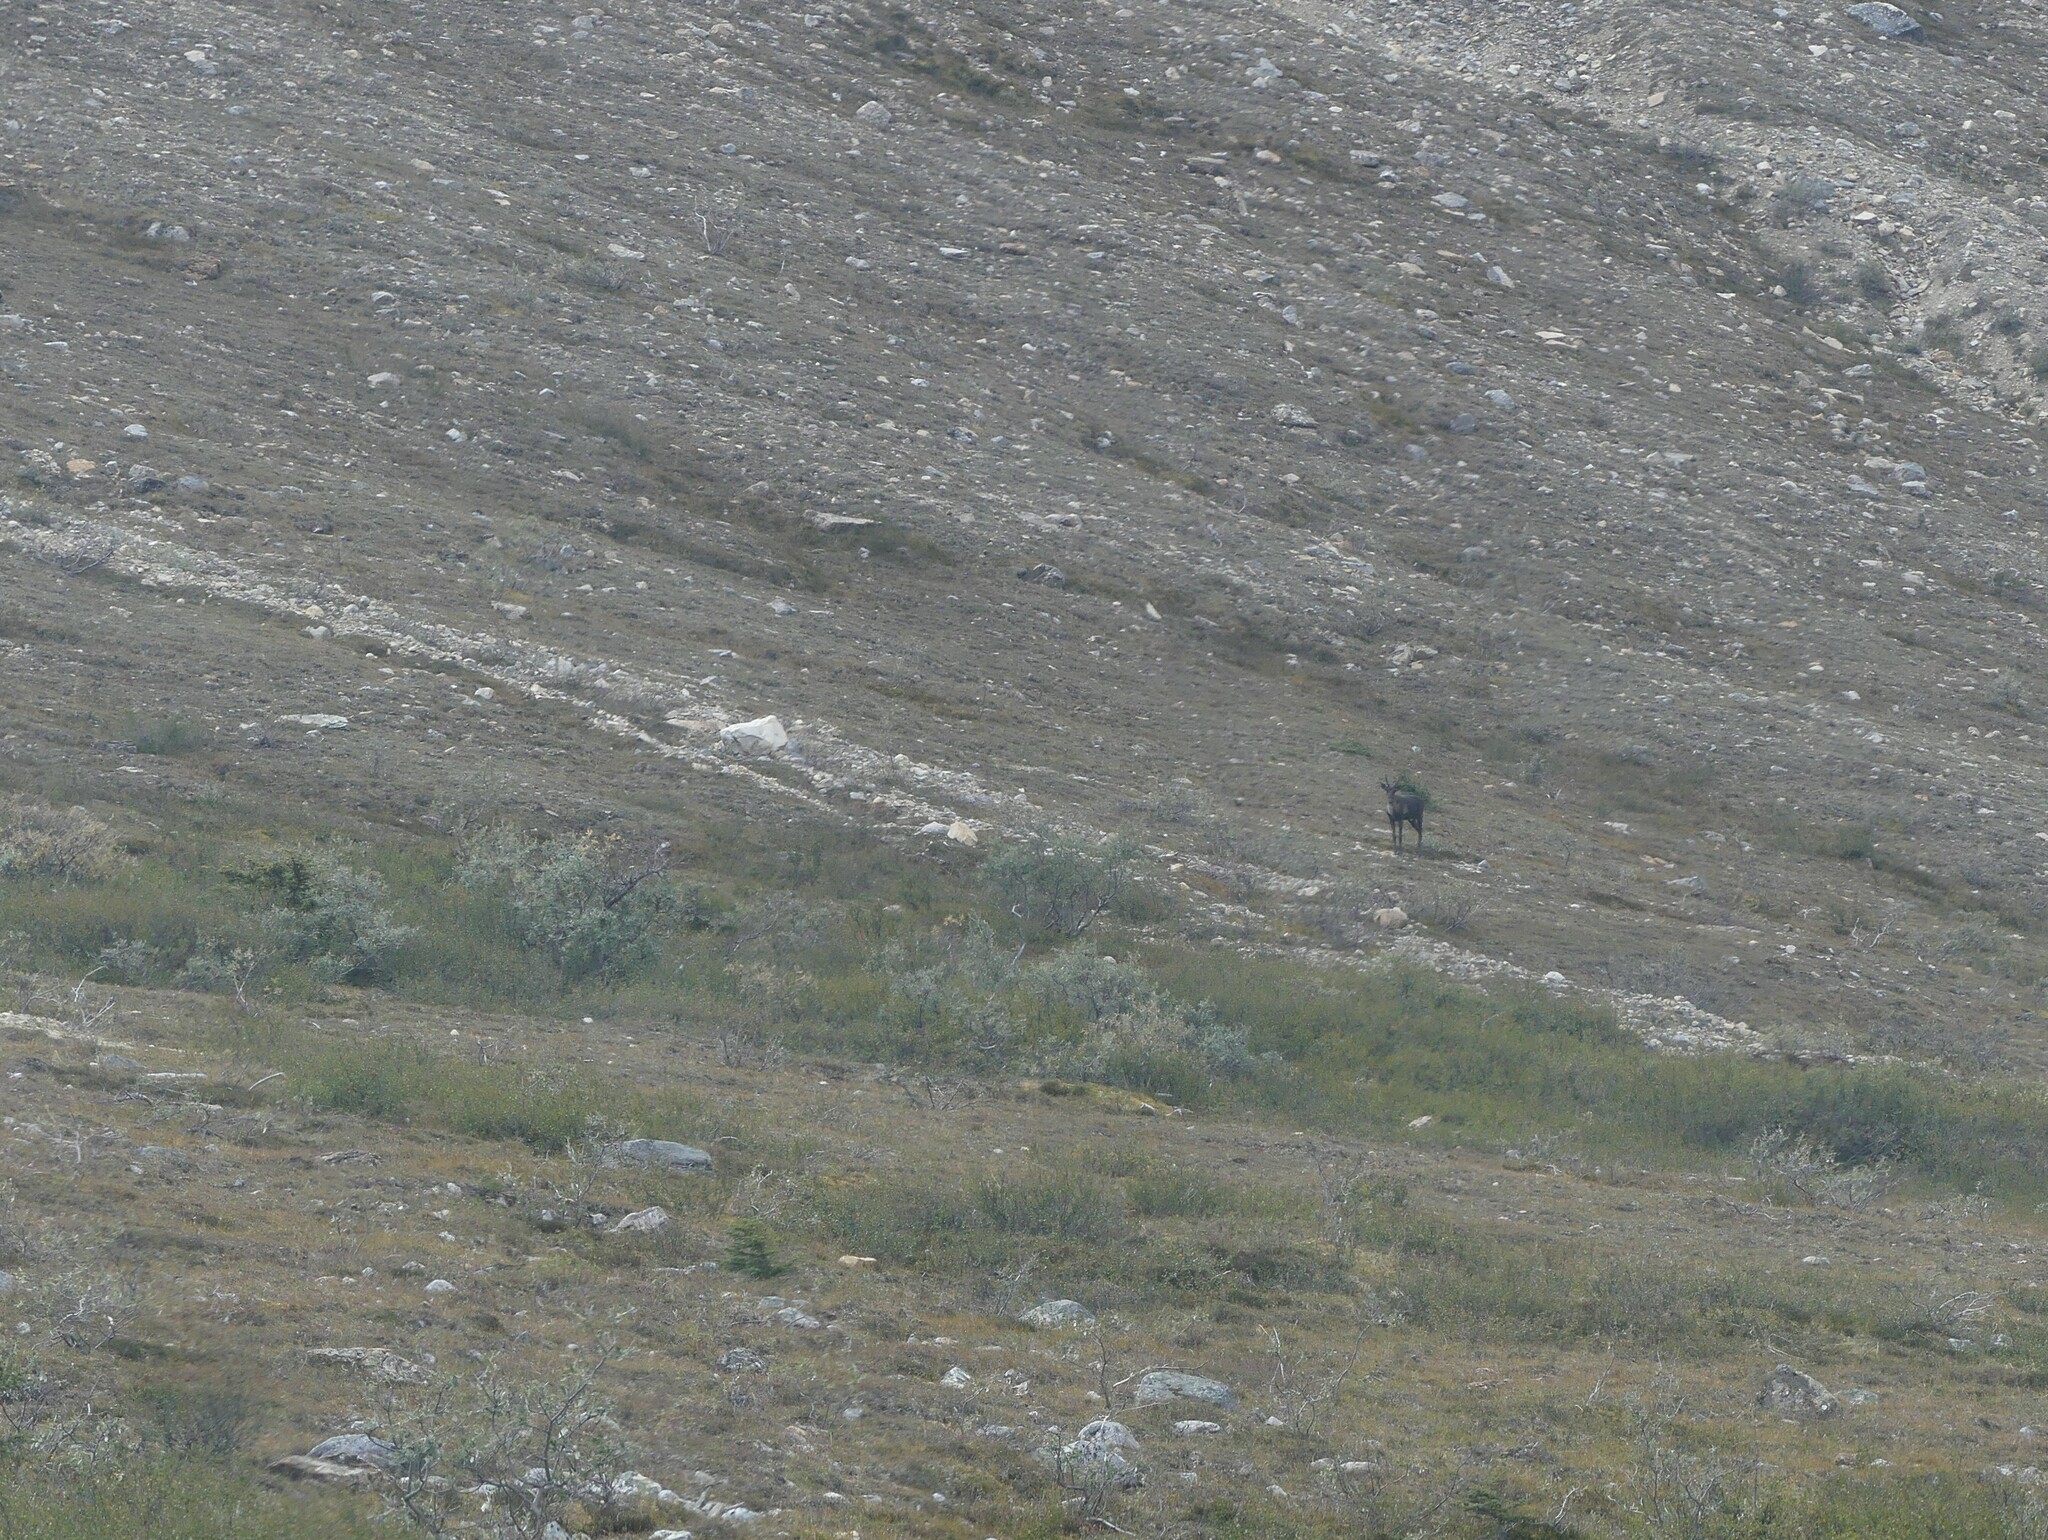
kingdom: Animalia
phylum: Chordata
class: Mammalia
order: Artiodactyla
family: Cervidae
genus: Rangifer
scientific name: Rangifer tarandus
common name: Reindeer
